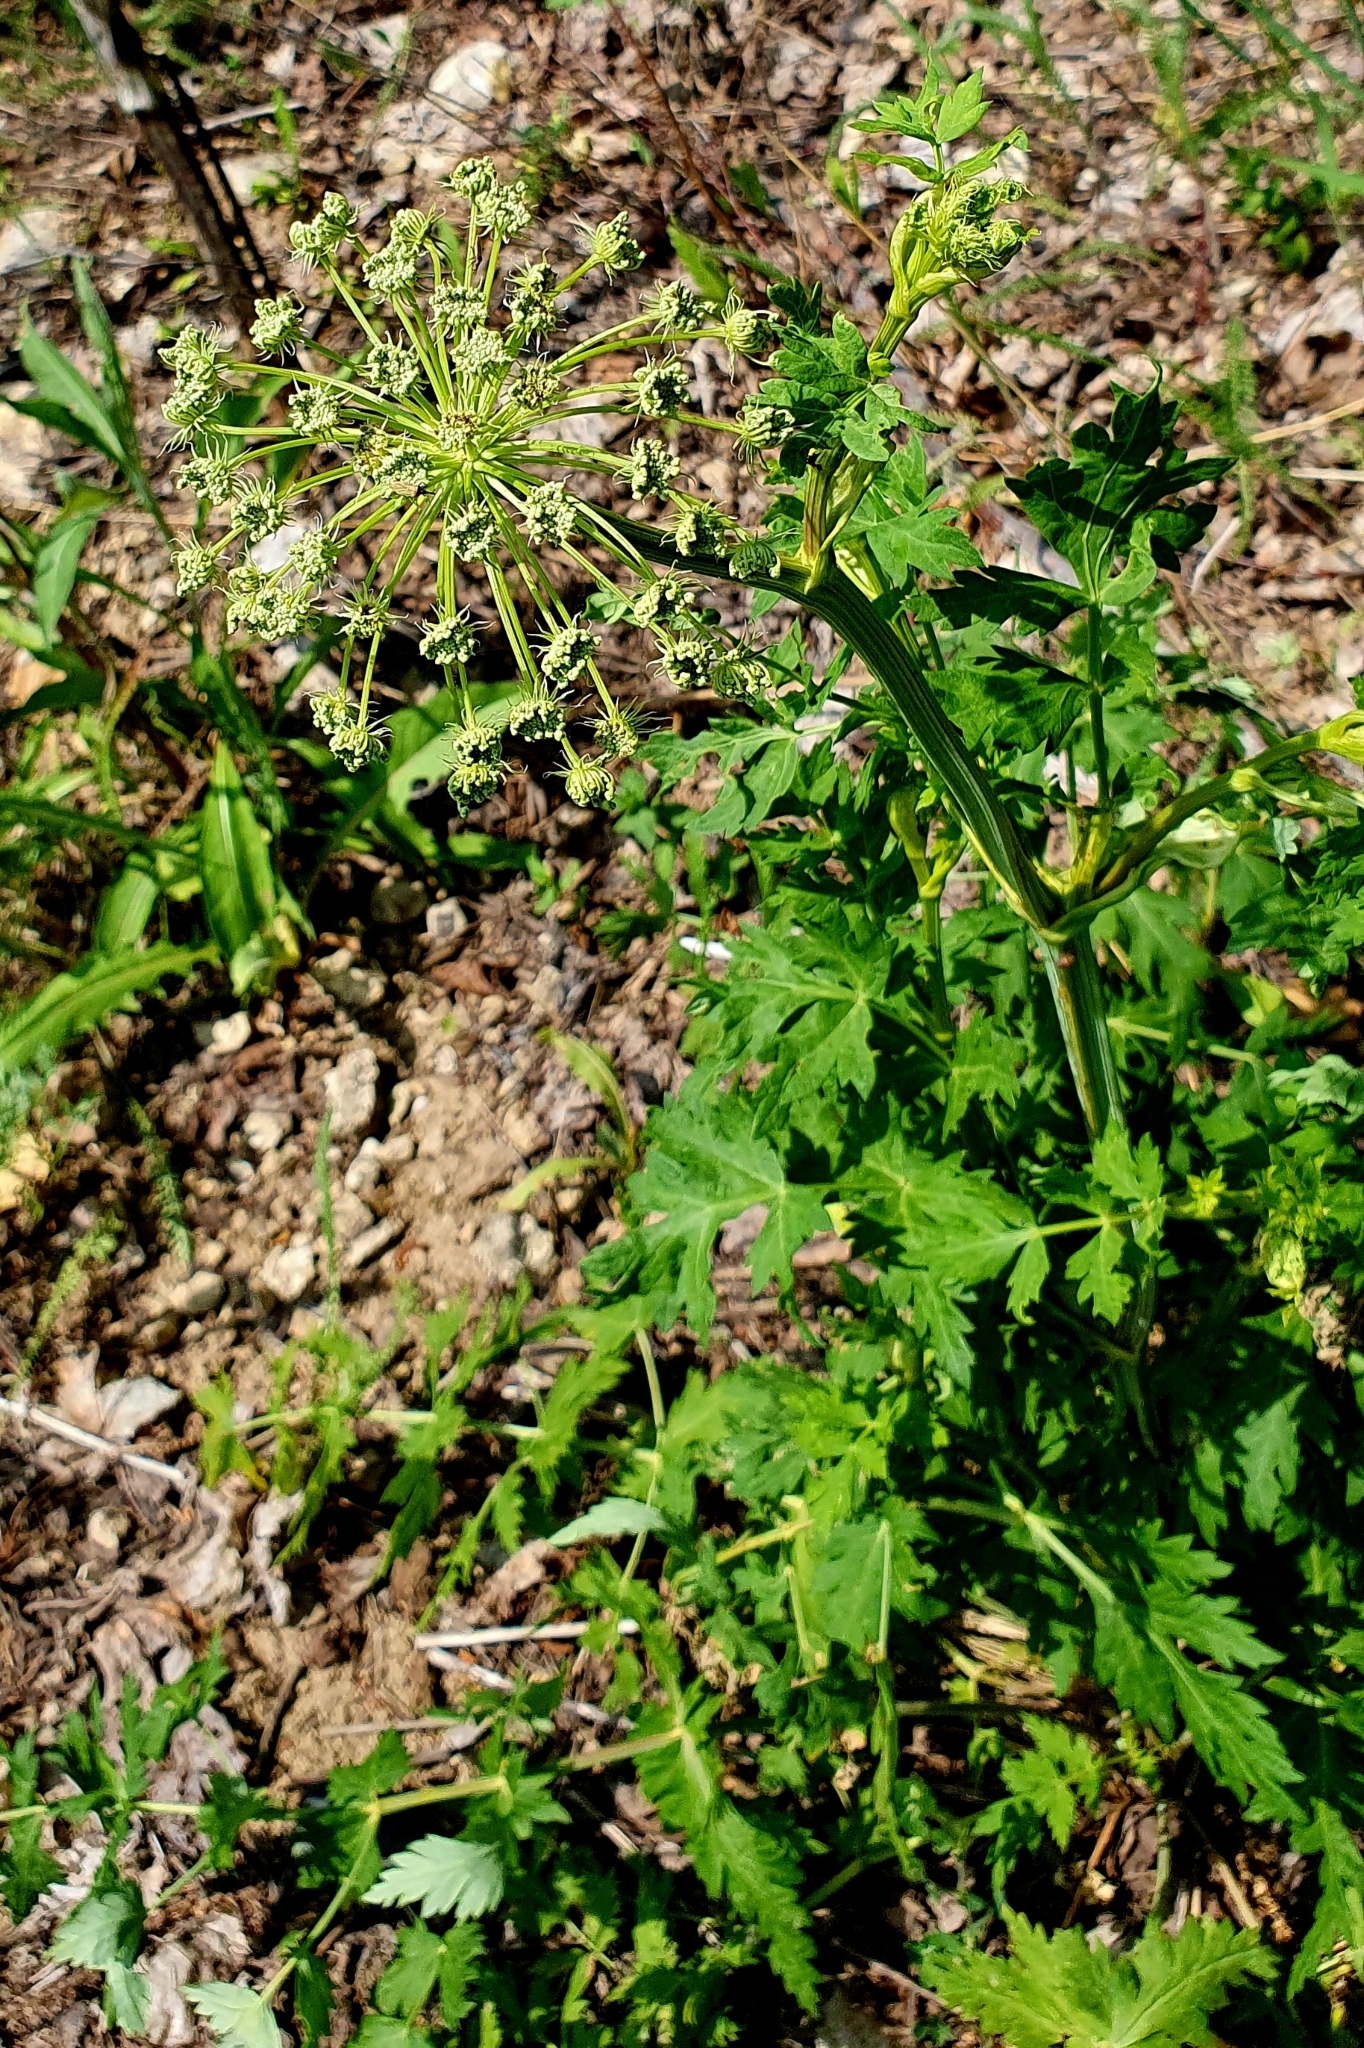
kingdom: Plantae
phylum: Tracheophyta
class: Magnoliopsida
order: Apiales
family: Apiaceae
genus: Seseli
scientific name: Seseli libanotis
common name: Mooncarrot
